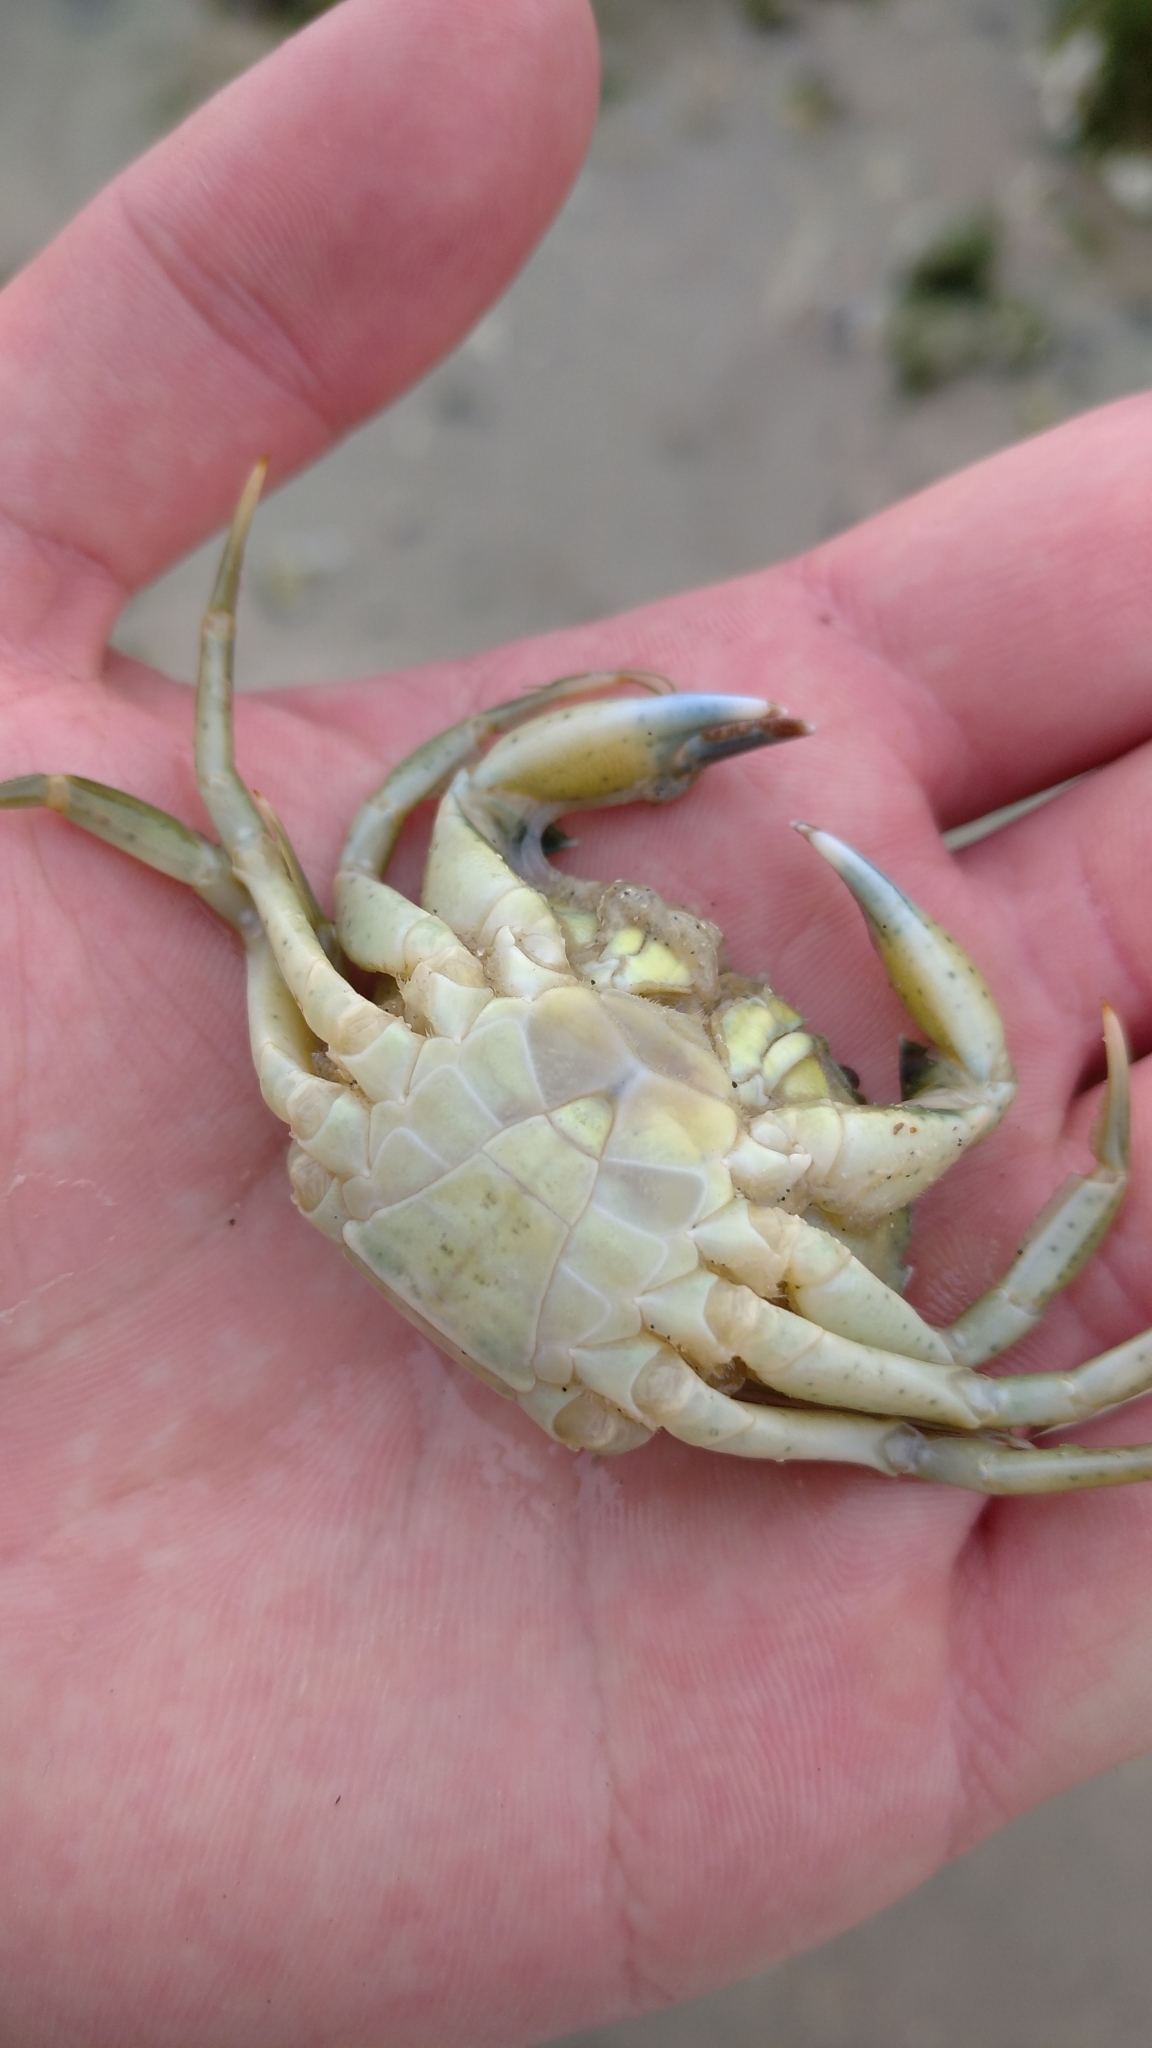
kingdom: Animalia
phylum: Arthropoda
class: Malacostraca
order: Decapoda
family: Carcinidae
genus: Carcinus
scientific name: Carcinus maenas
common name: European green crab
